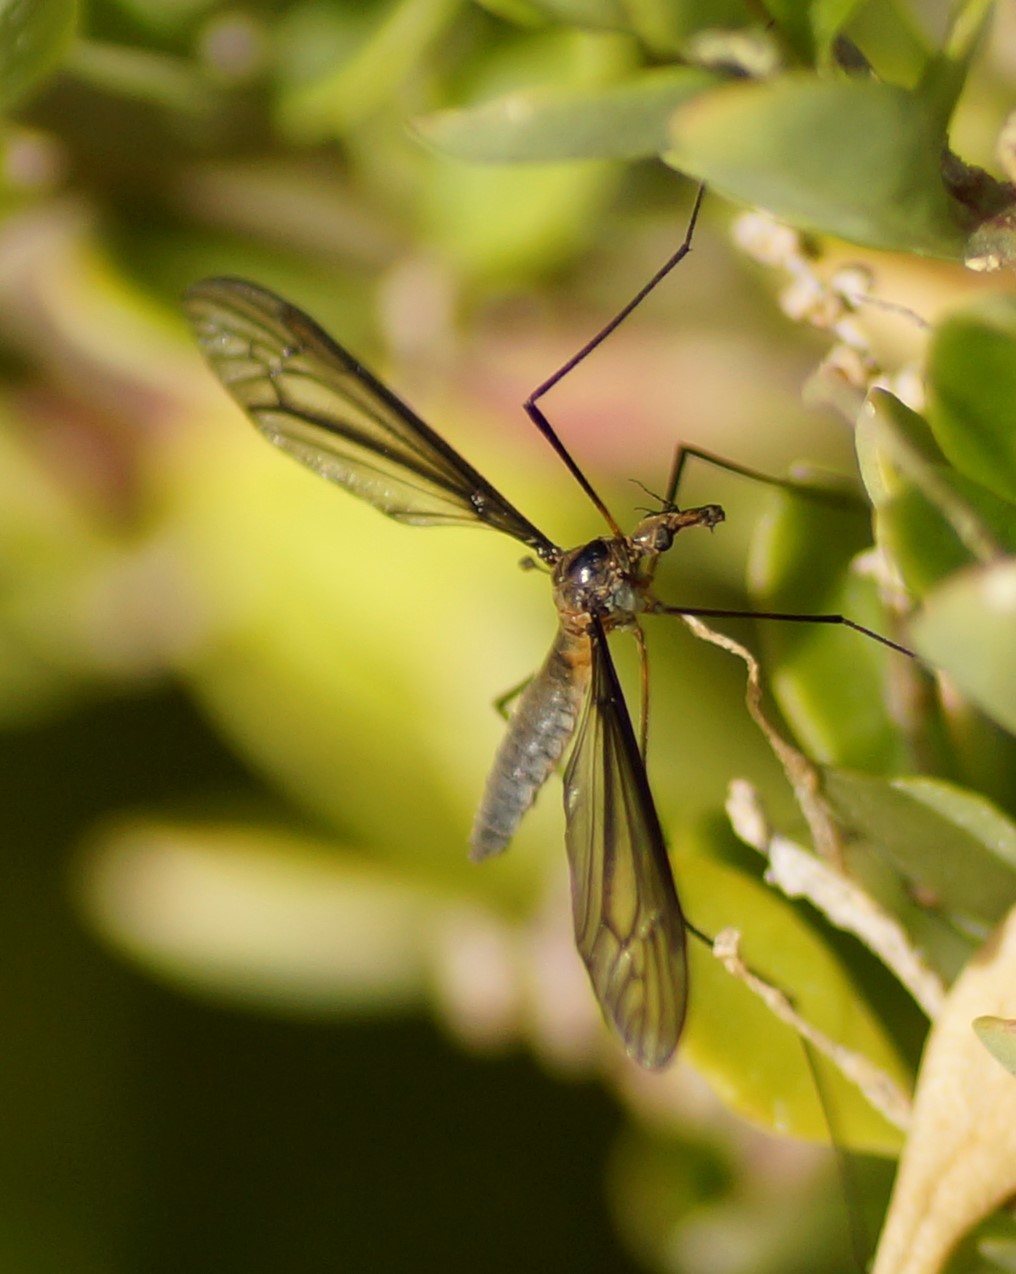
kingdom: Animalia
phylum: Arthropoda
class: Insecta
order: Diptera
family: Tipulidae
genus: Leptotarsus
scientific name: Leptotarsus humilis
